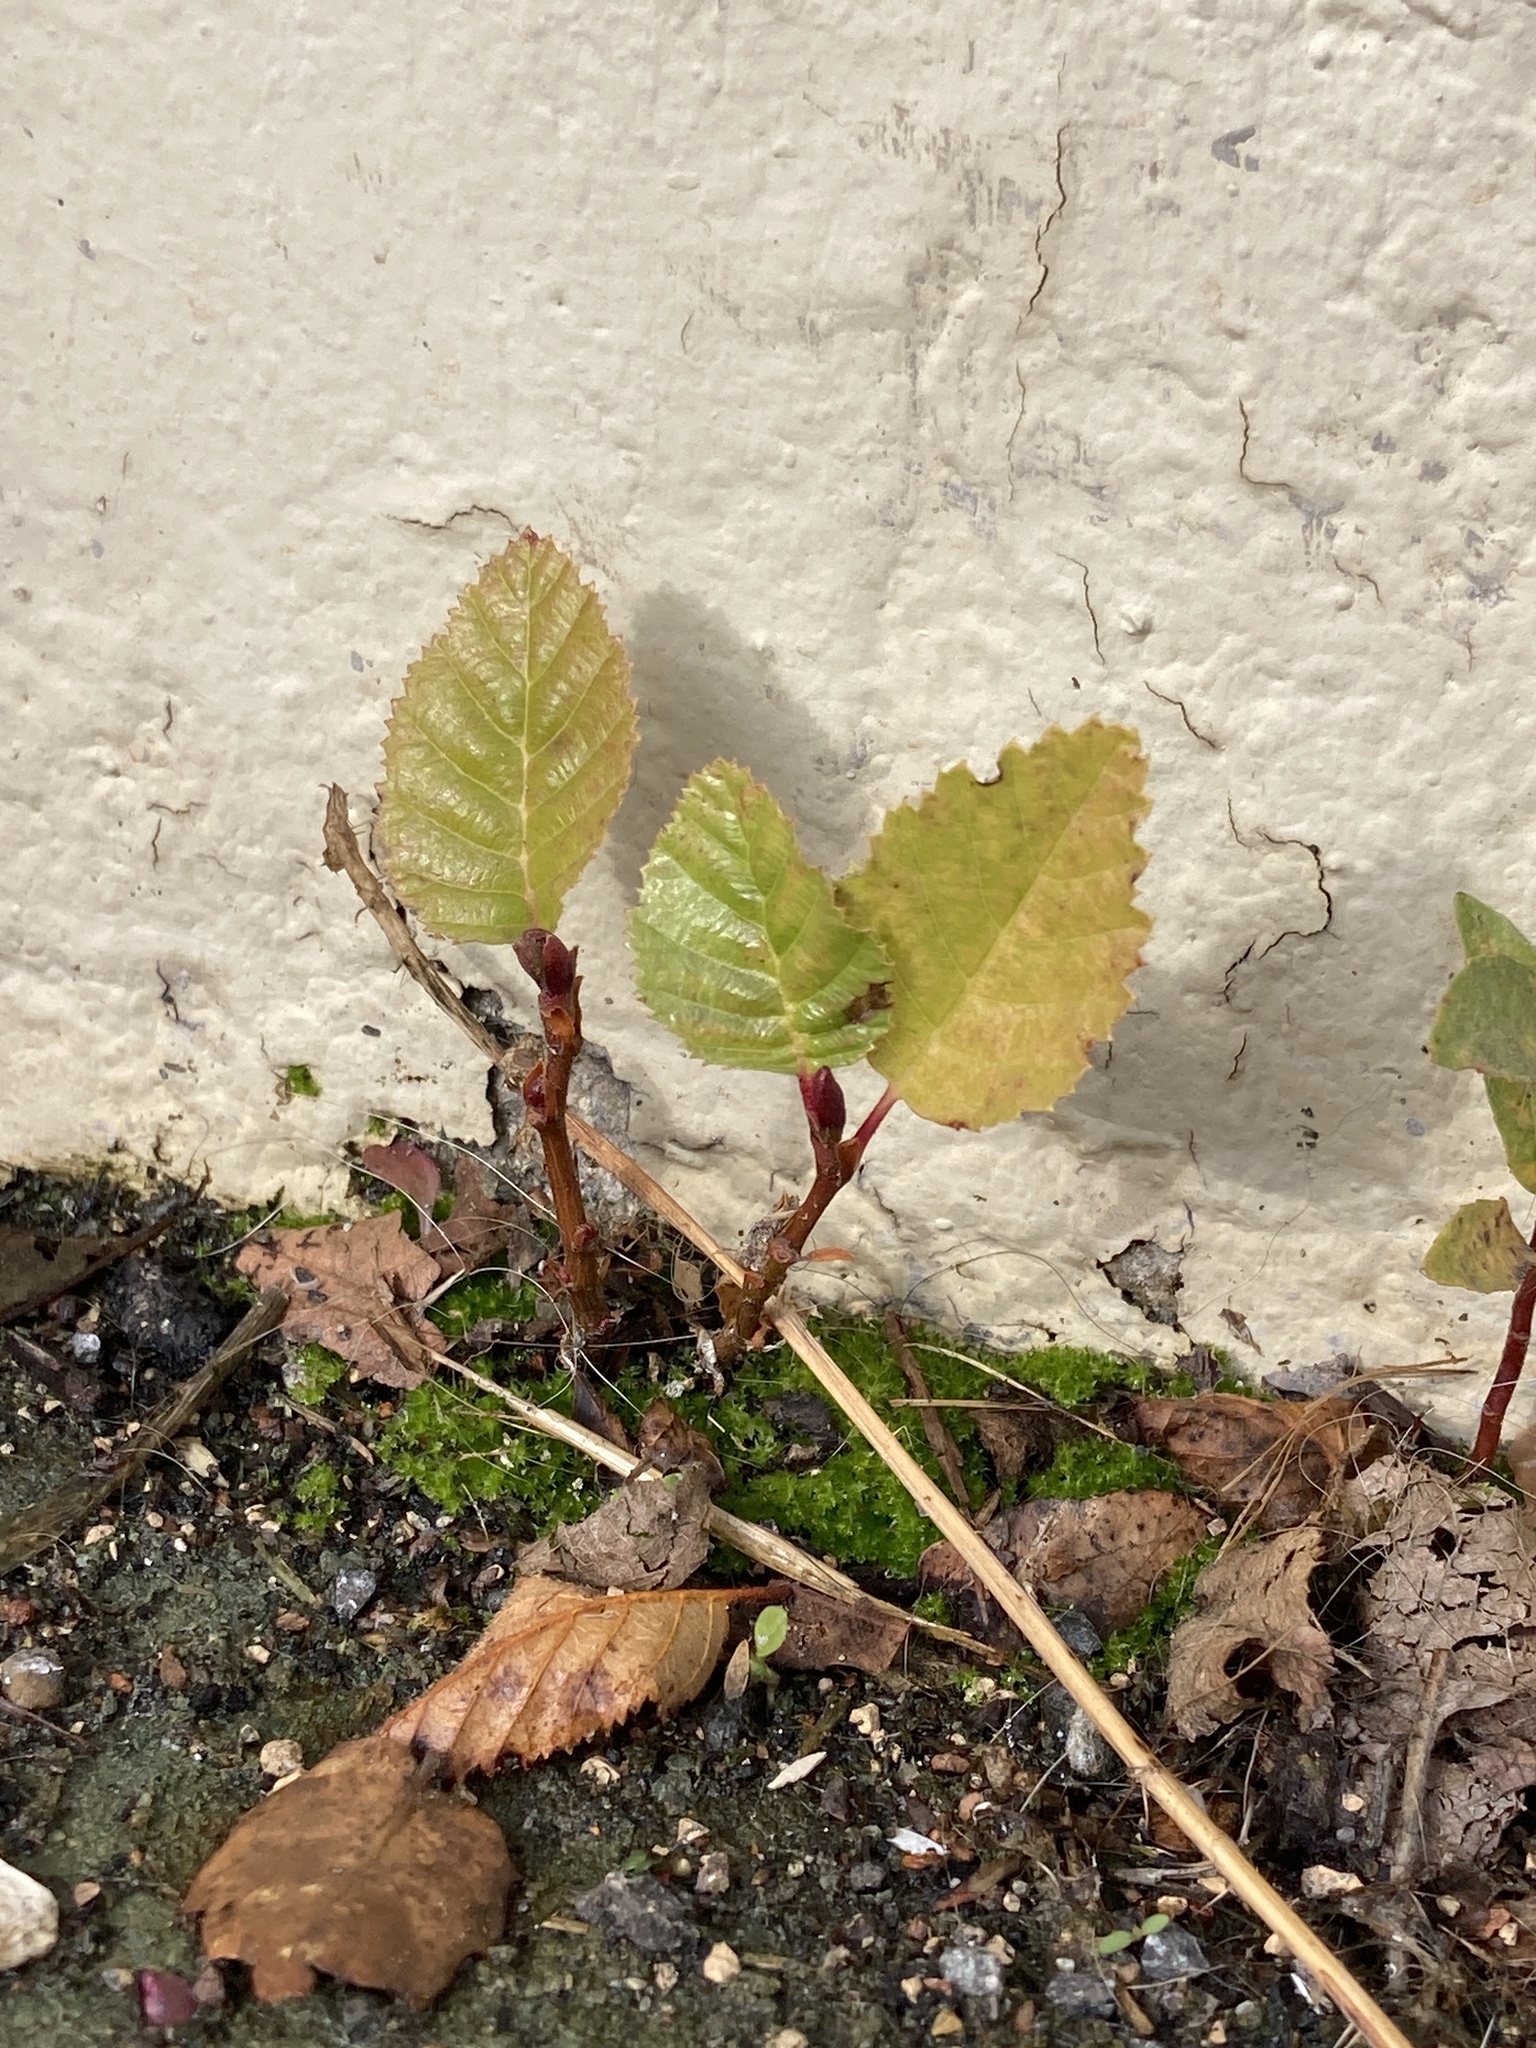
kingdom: Plantae
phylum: Tracheophyta
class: Magnoliopsida
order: Fagales
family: Betulaceae
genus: Alnus
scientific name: Alnus rhombifolia
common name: California alder
